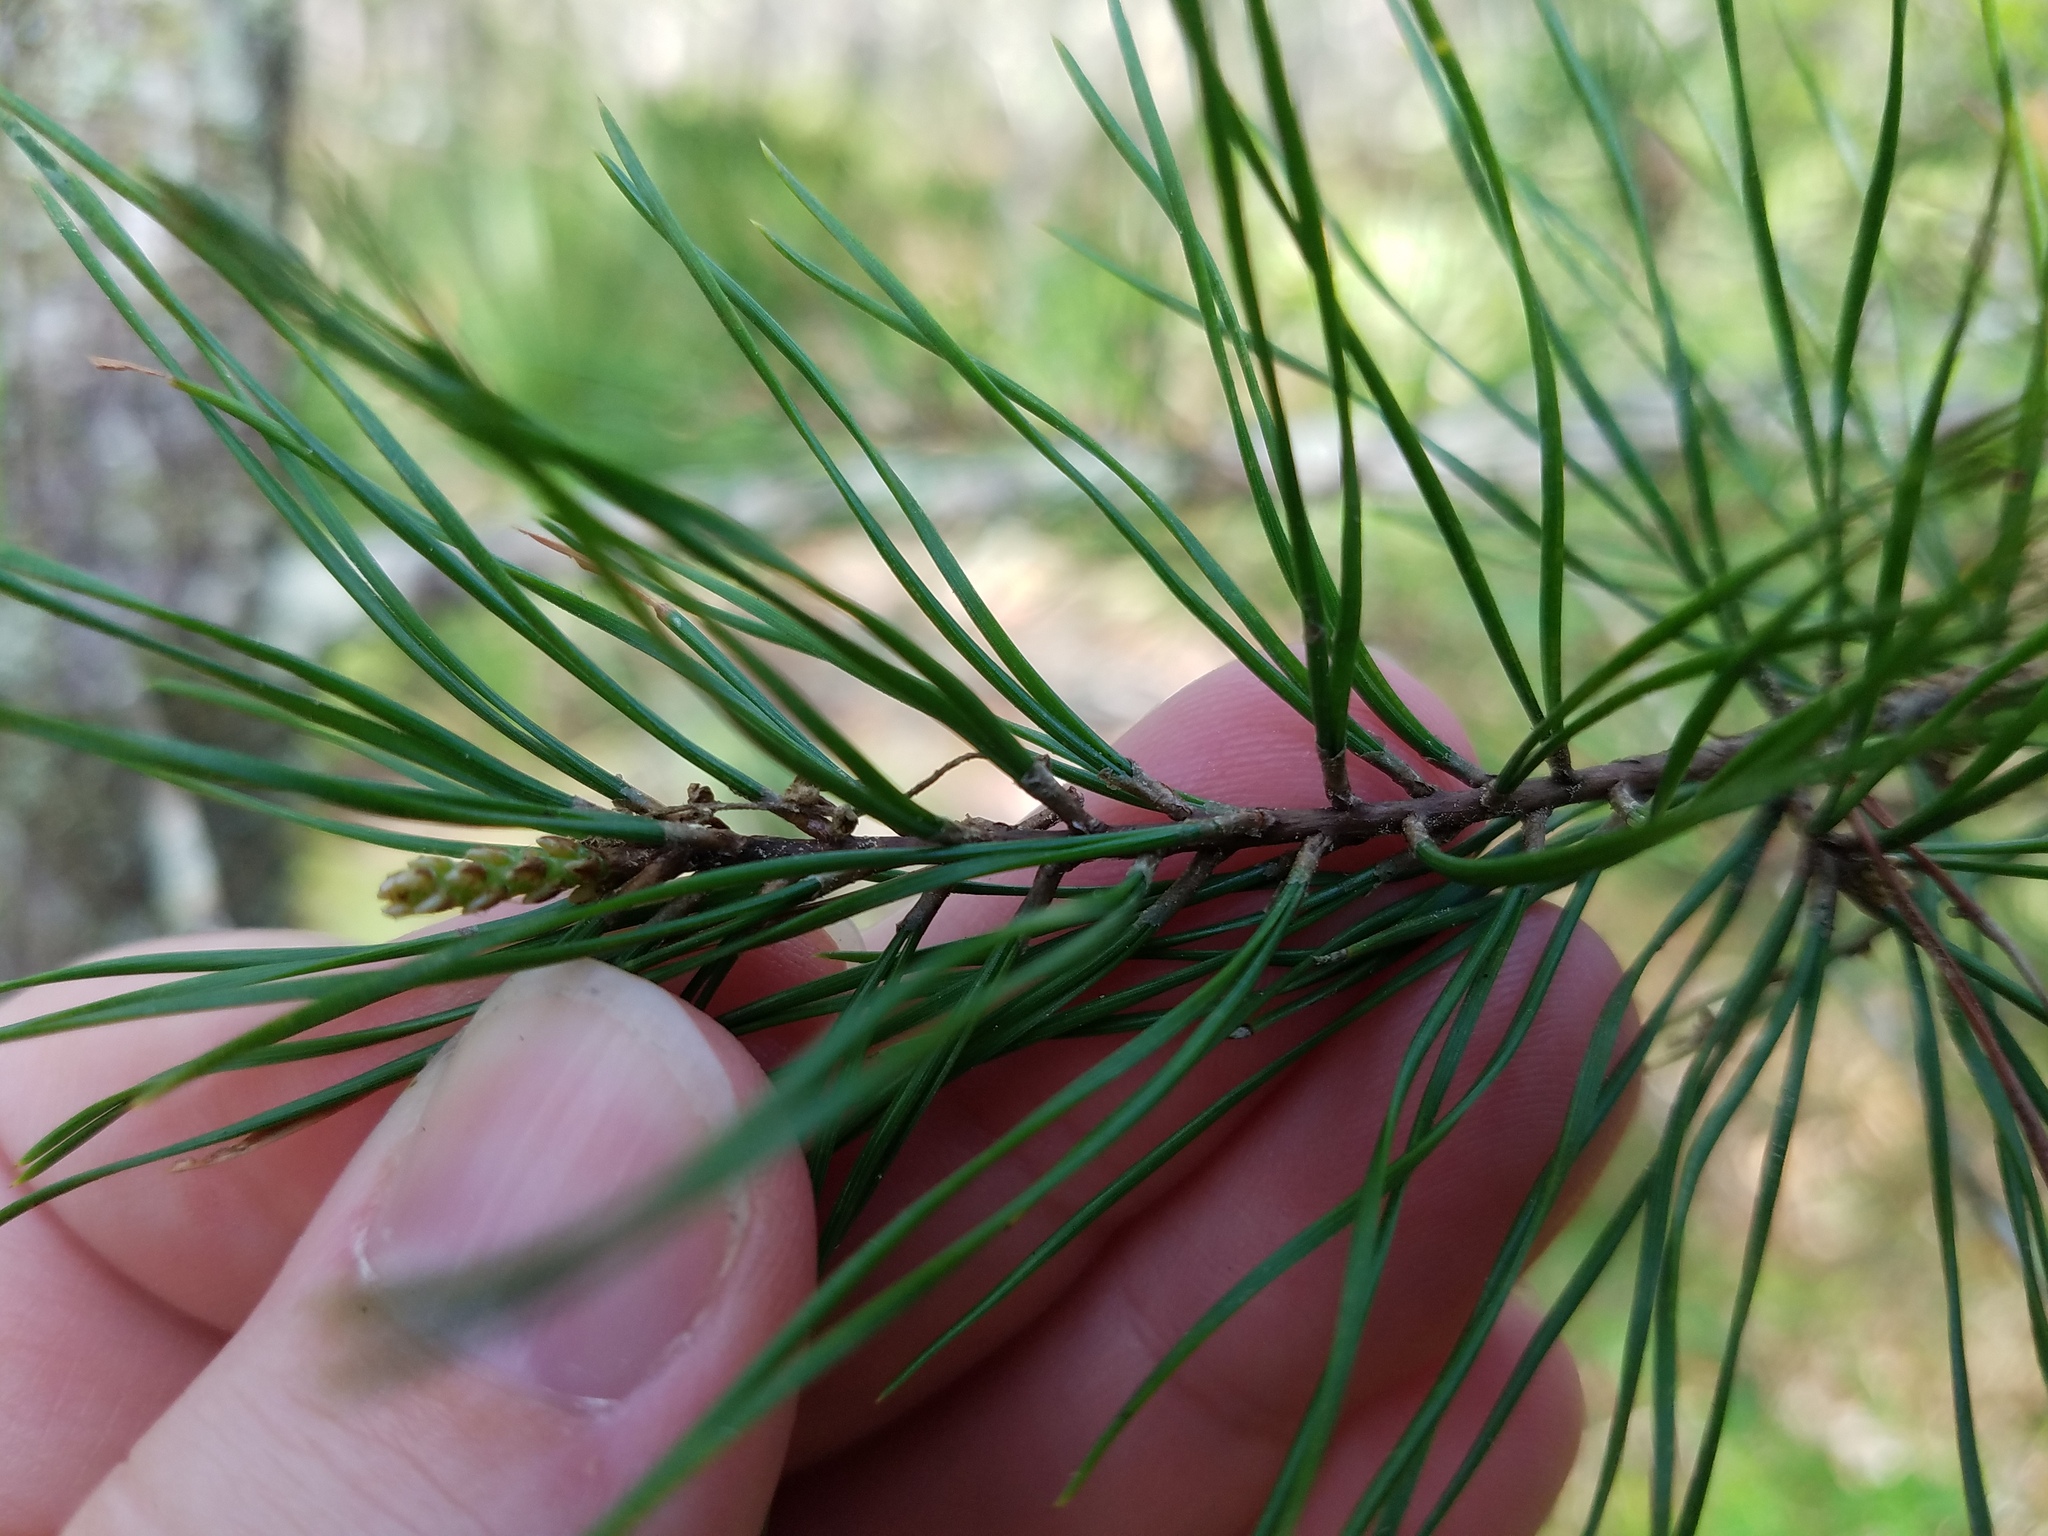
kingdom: Plantae
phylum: Tracheophyta
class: Pinopsida
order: Pinales
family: Pinaceae
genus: Pinus
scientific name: Pinus glabra
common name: Spruce pine
